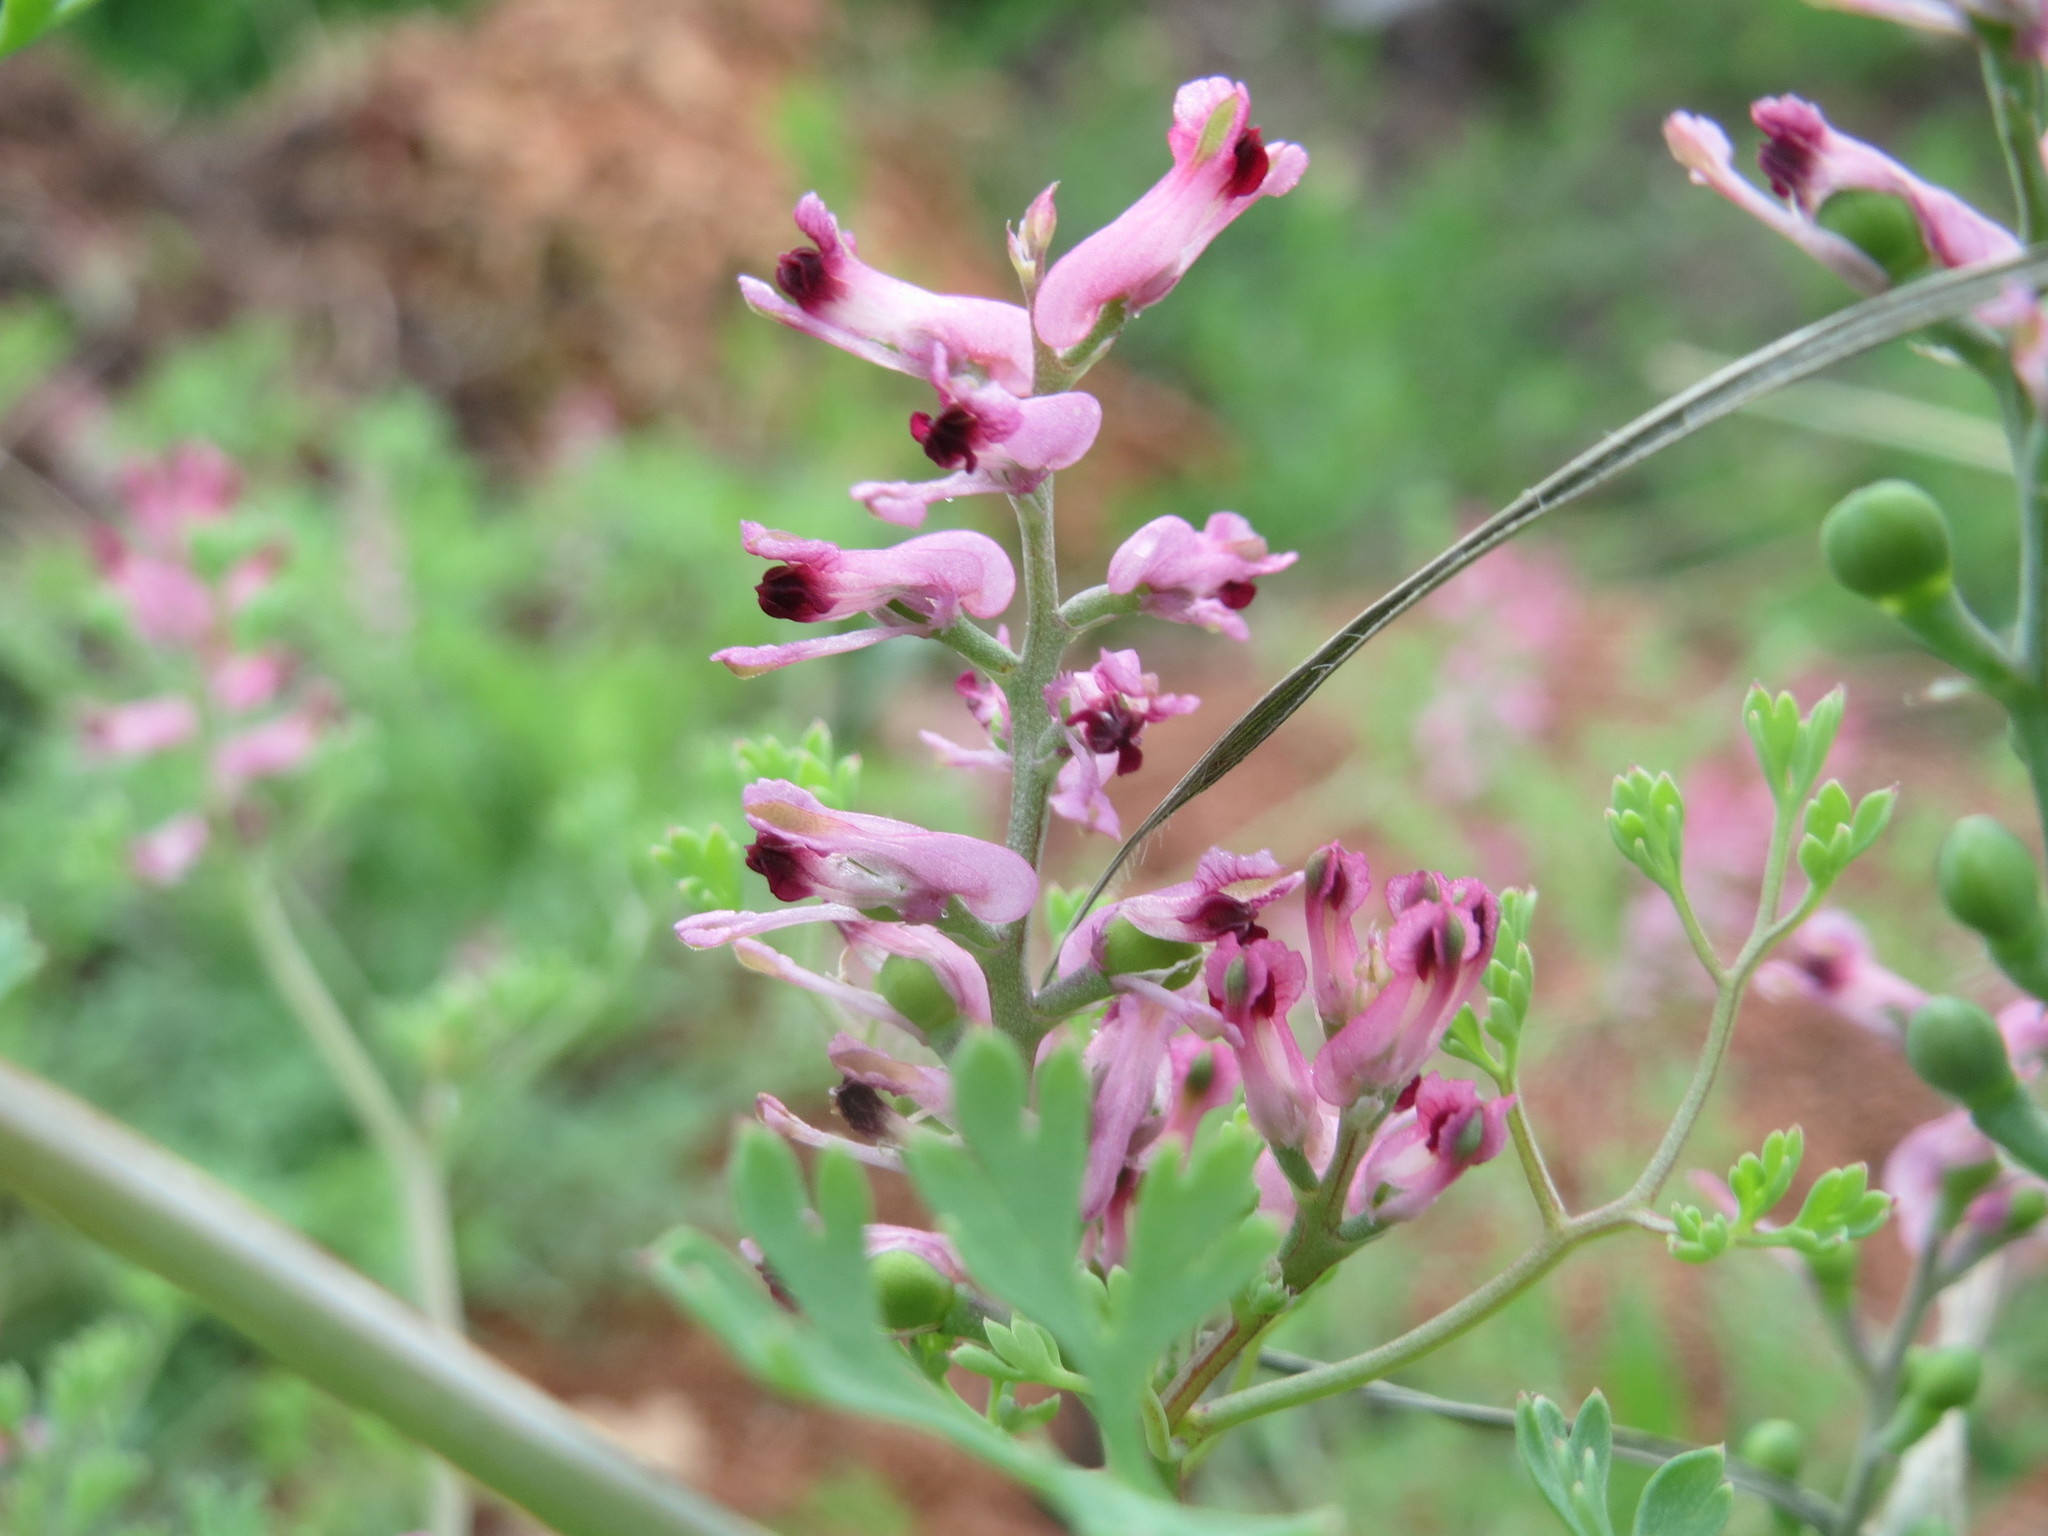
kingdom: Plantae
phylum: Tracheophyta
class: Magnoliopsida
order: Ranunculales
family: Papaveraceae
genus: Fumaria
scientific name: Fumaria officinalis
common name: Common fumitory
